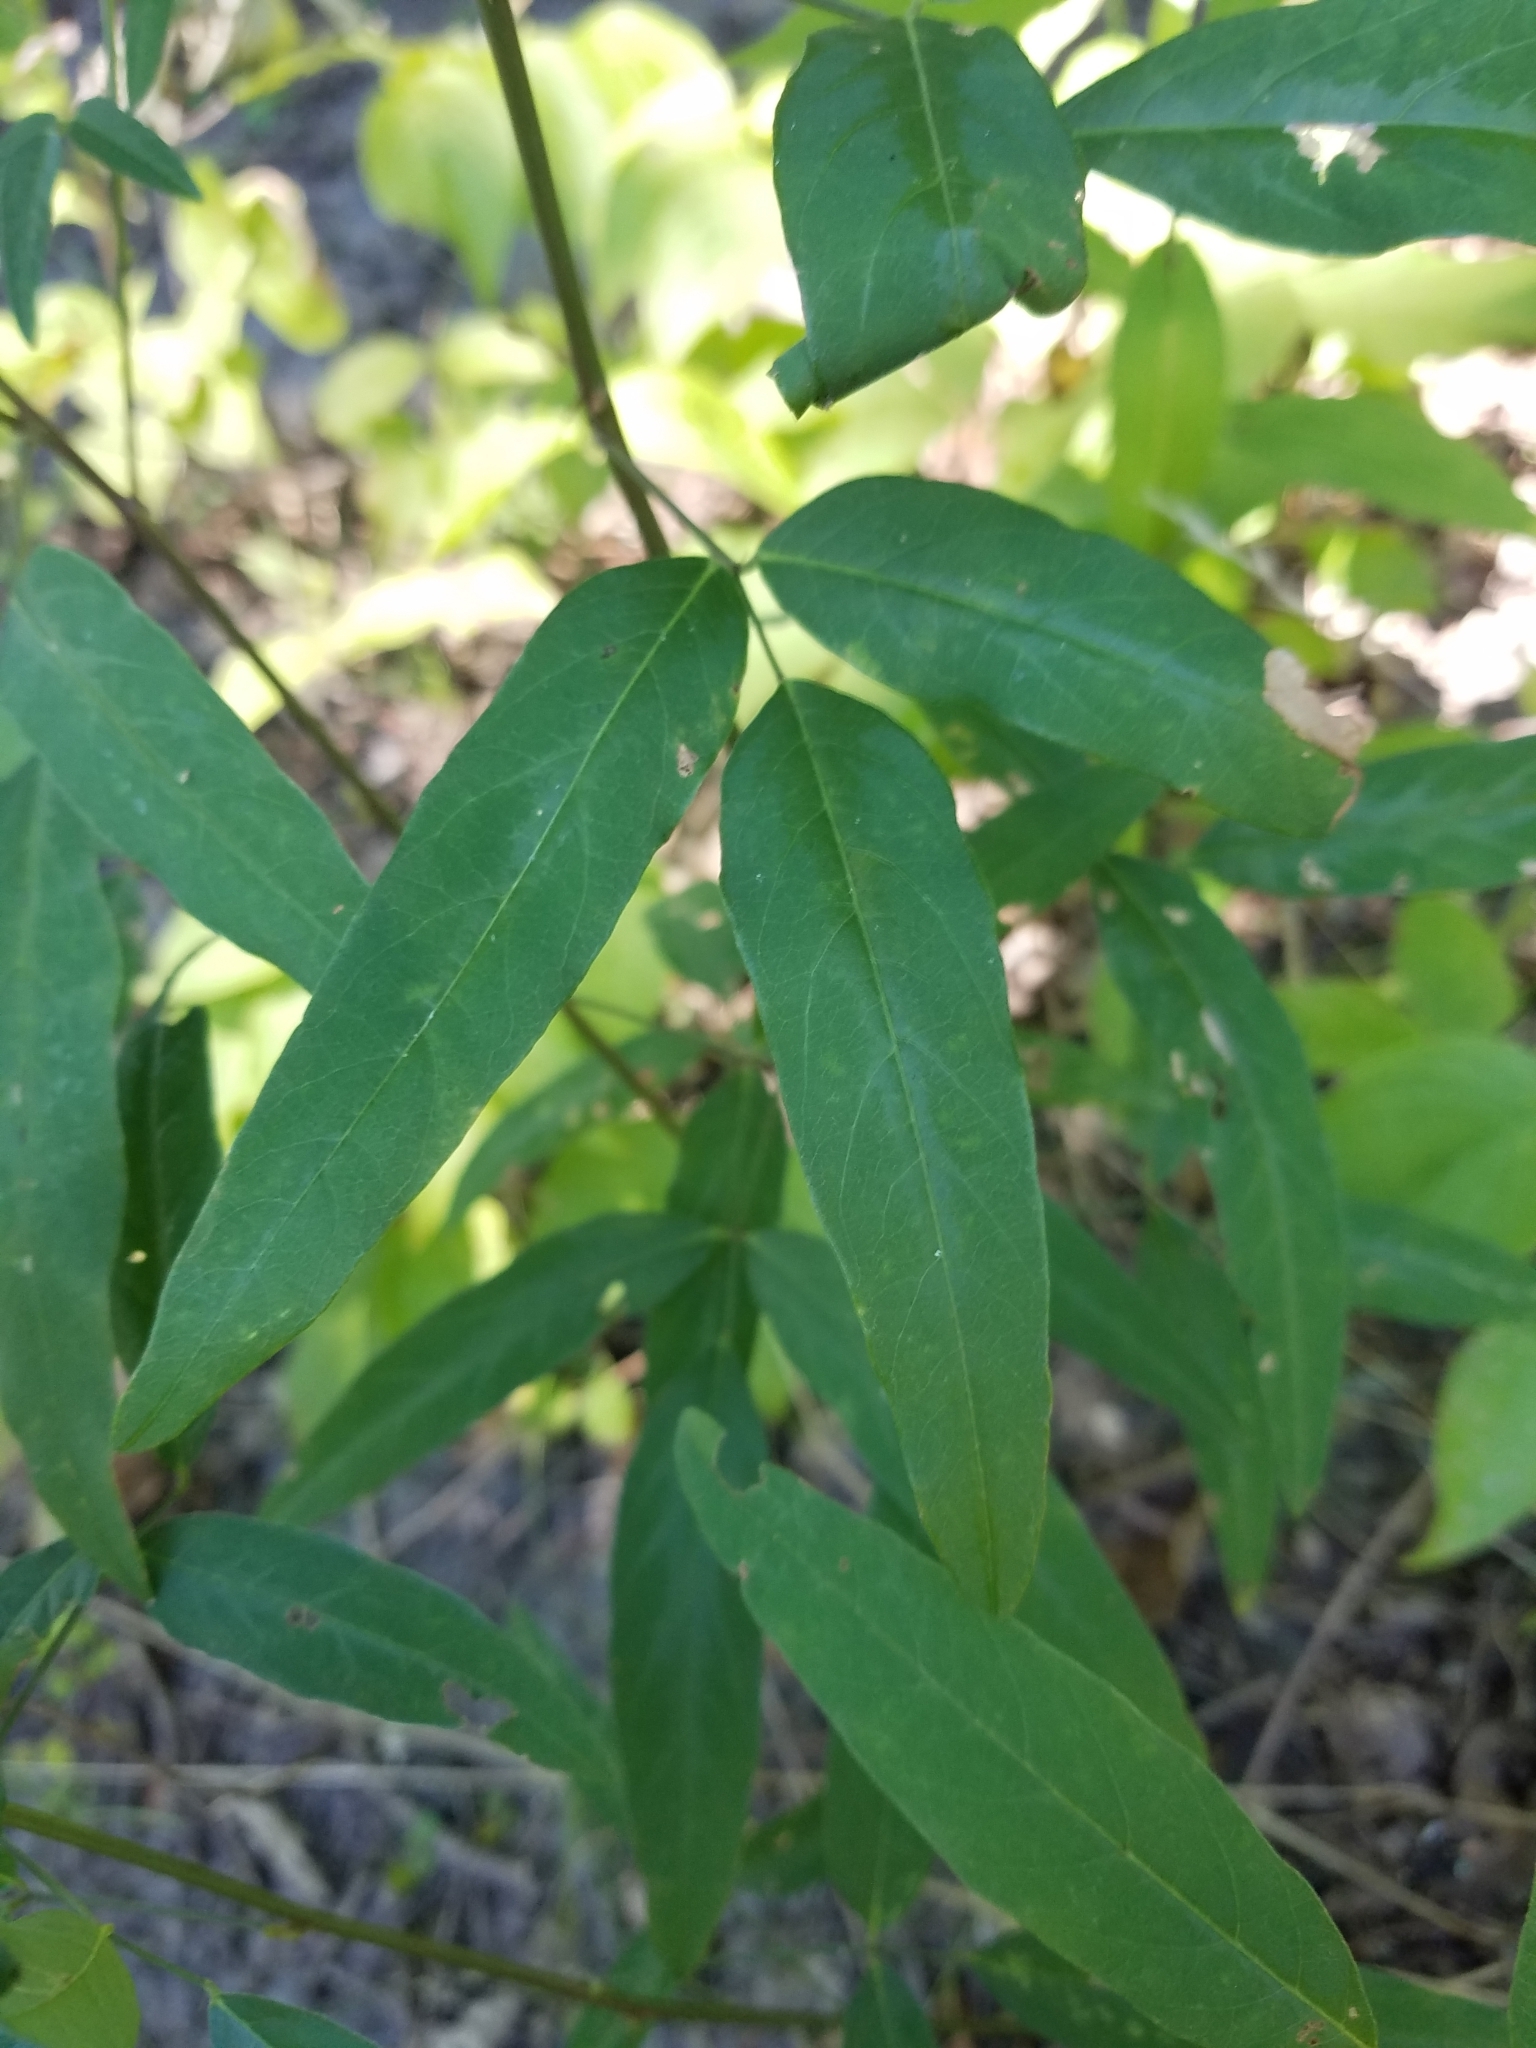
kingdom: Plantae
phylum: Tracheophyta
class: Magnoliopsida
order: Fabales
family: Fabaceae
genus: Desmodium
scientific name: Desmodium paniculatum
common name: Panicled tick-clover
